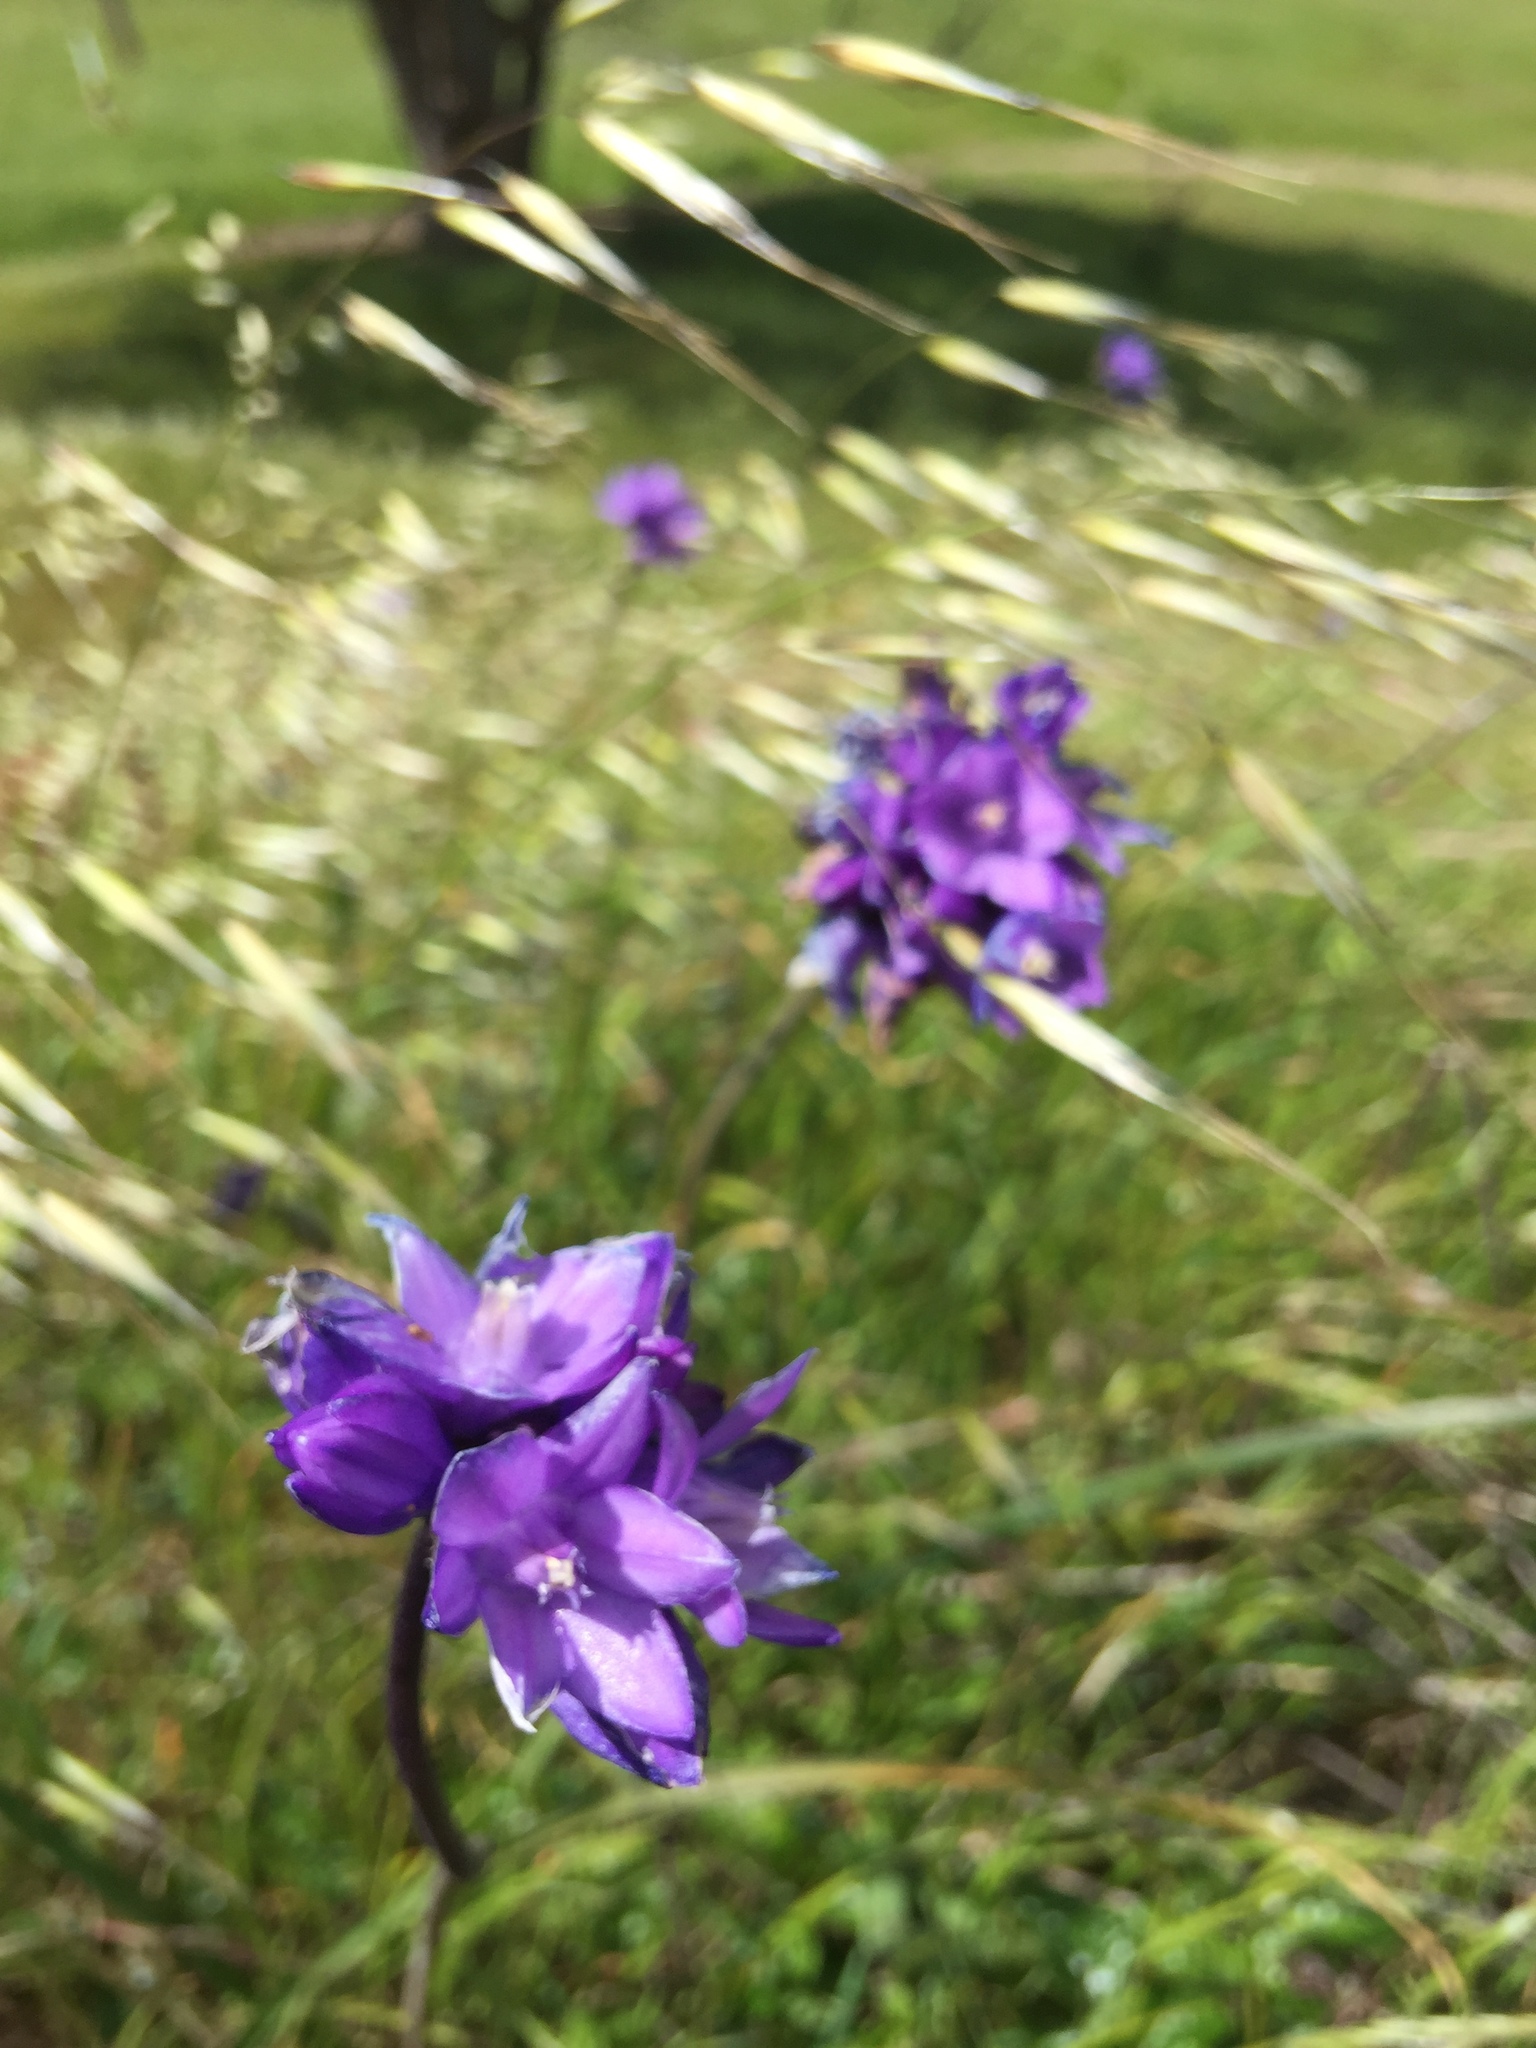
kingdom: Plantae
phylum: Tracheophyta
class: Liliopsida
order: Asparagales
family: Asparagaceae
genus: Dipterostemon
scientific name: Dipterostemon capitatus
